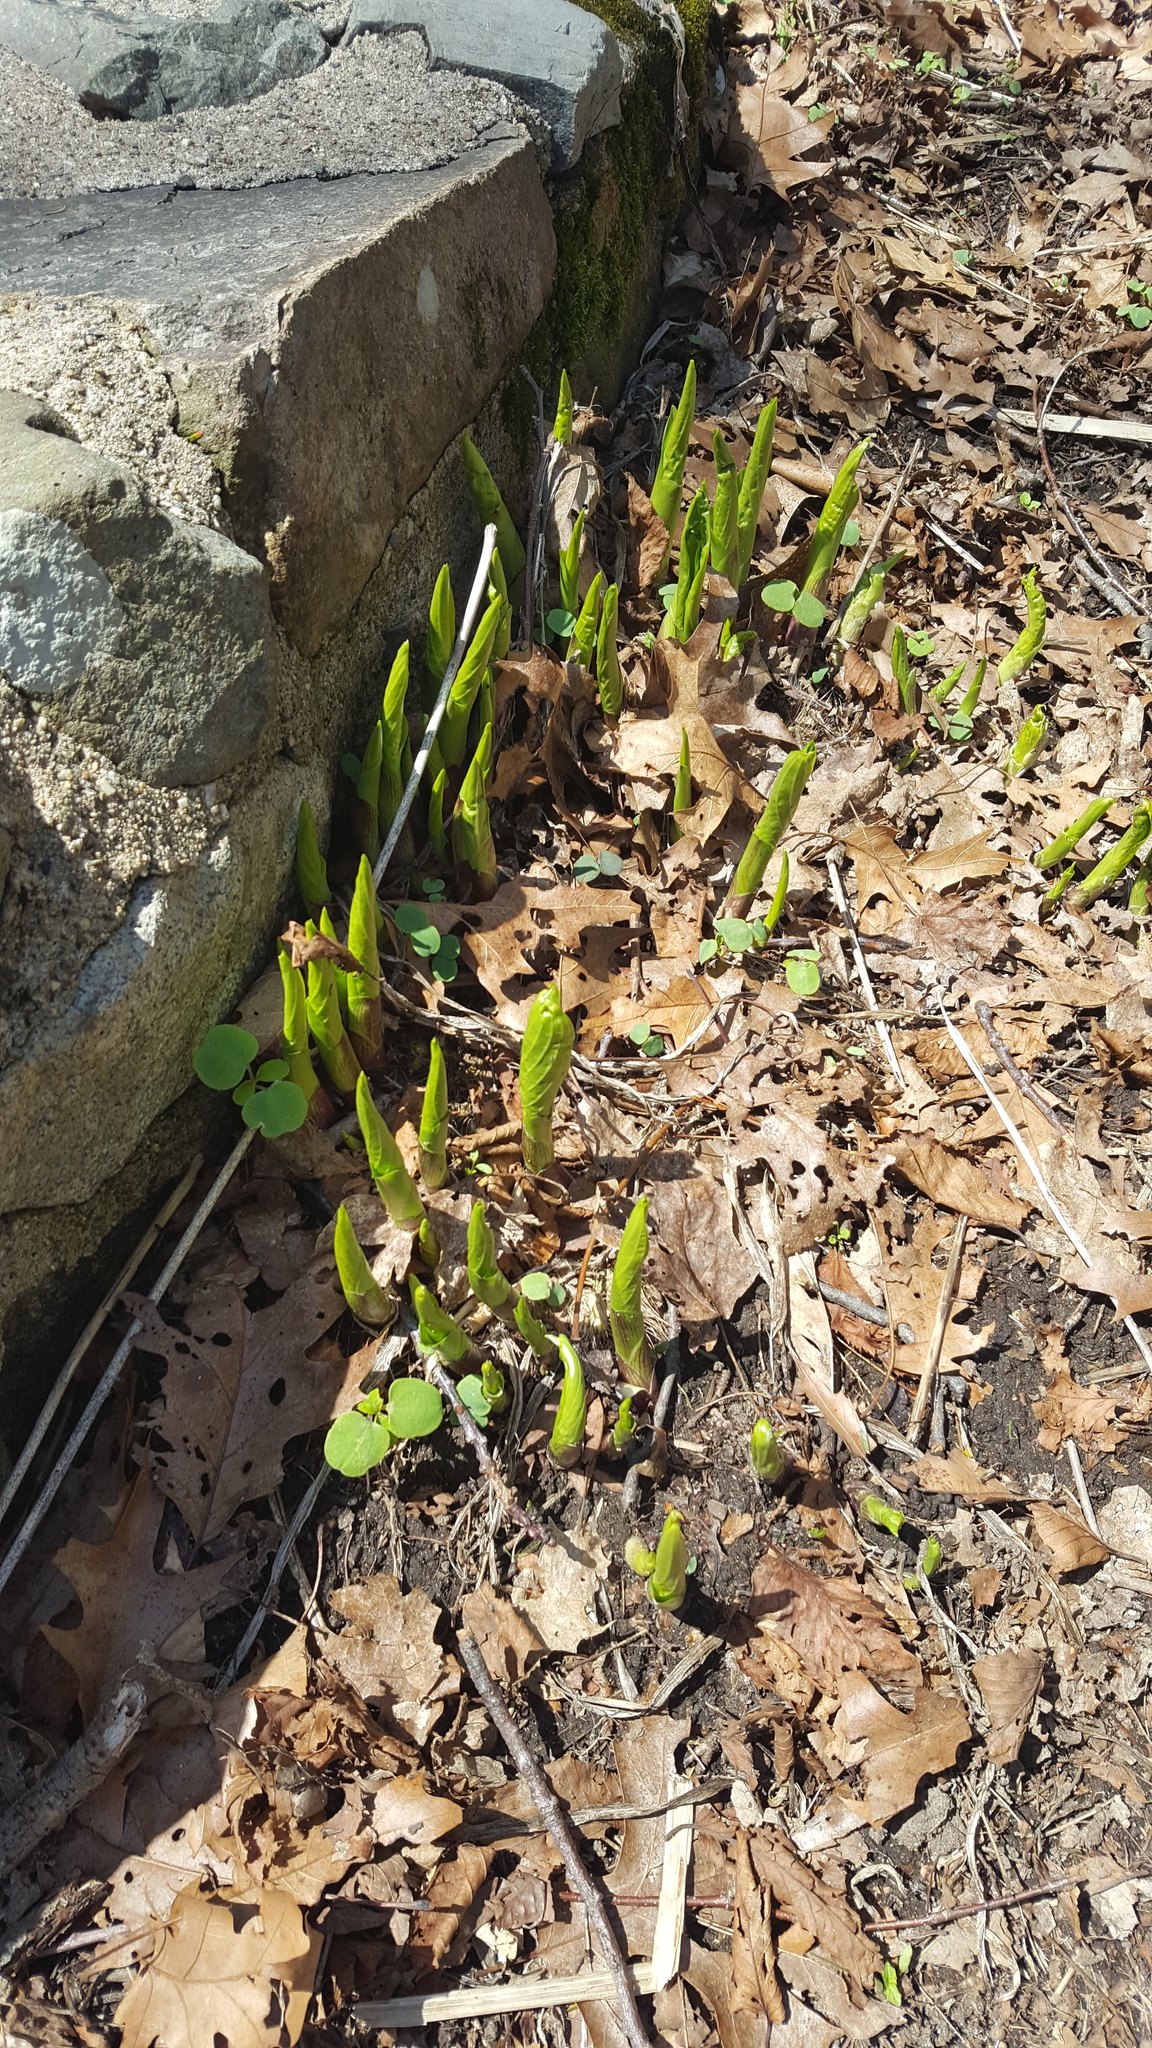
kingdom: Plantae
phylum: Tracheophyta
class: Liliopsida
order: Alismatales
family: Araceae
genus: Symplocarpus
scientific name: Symplocarpus foetidus
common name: Eastern skunk cabbage
